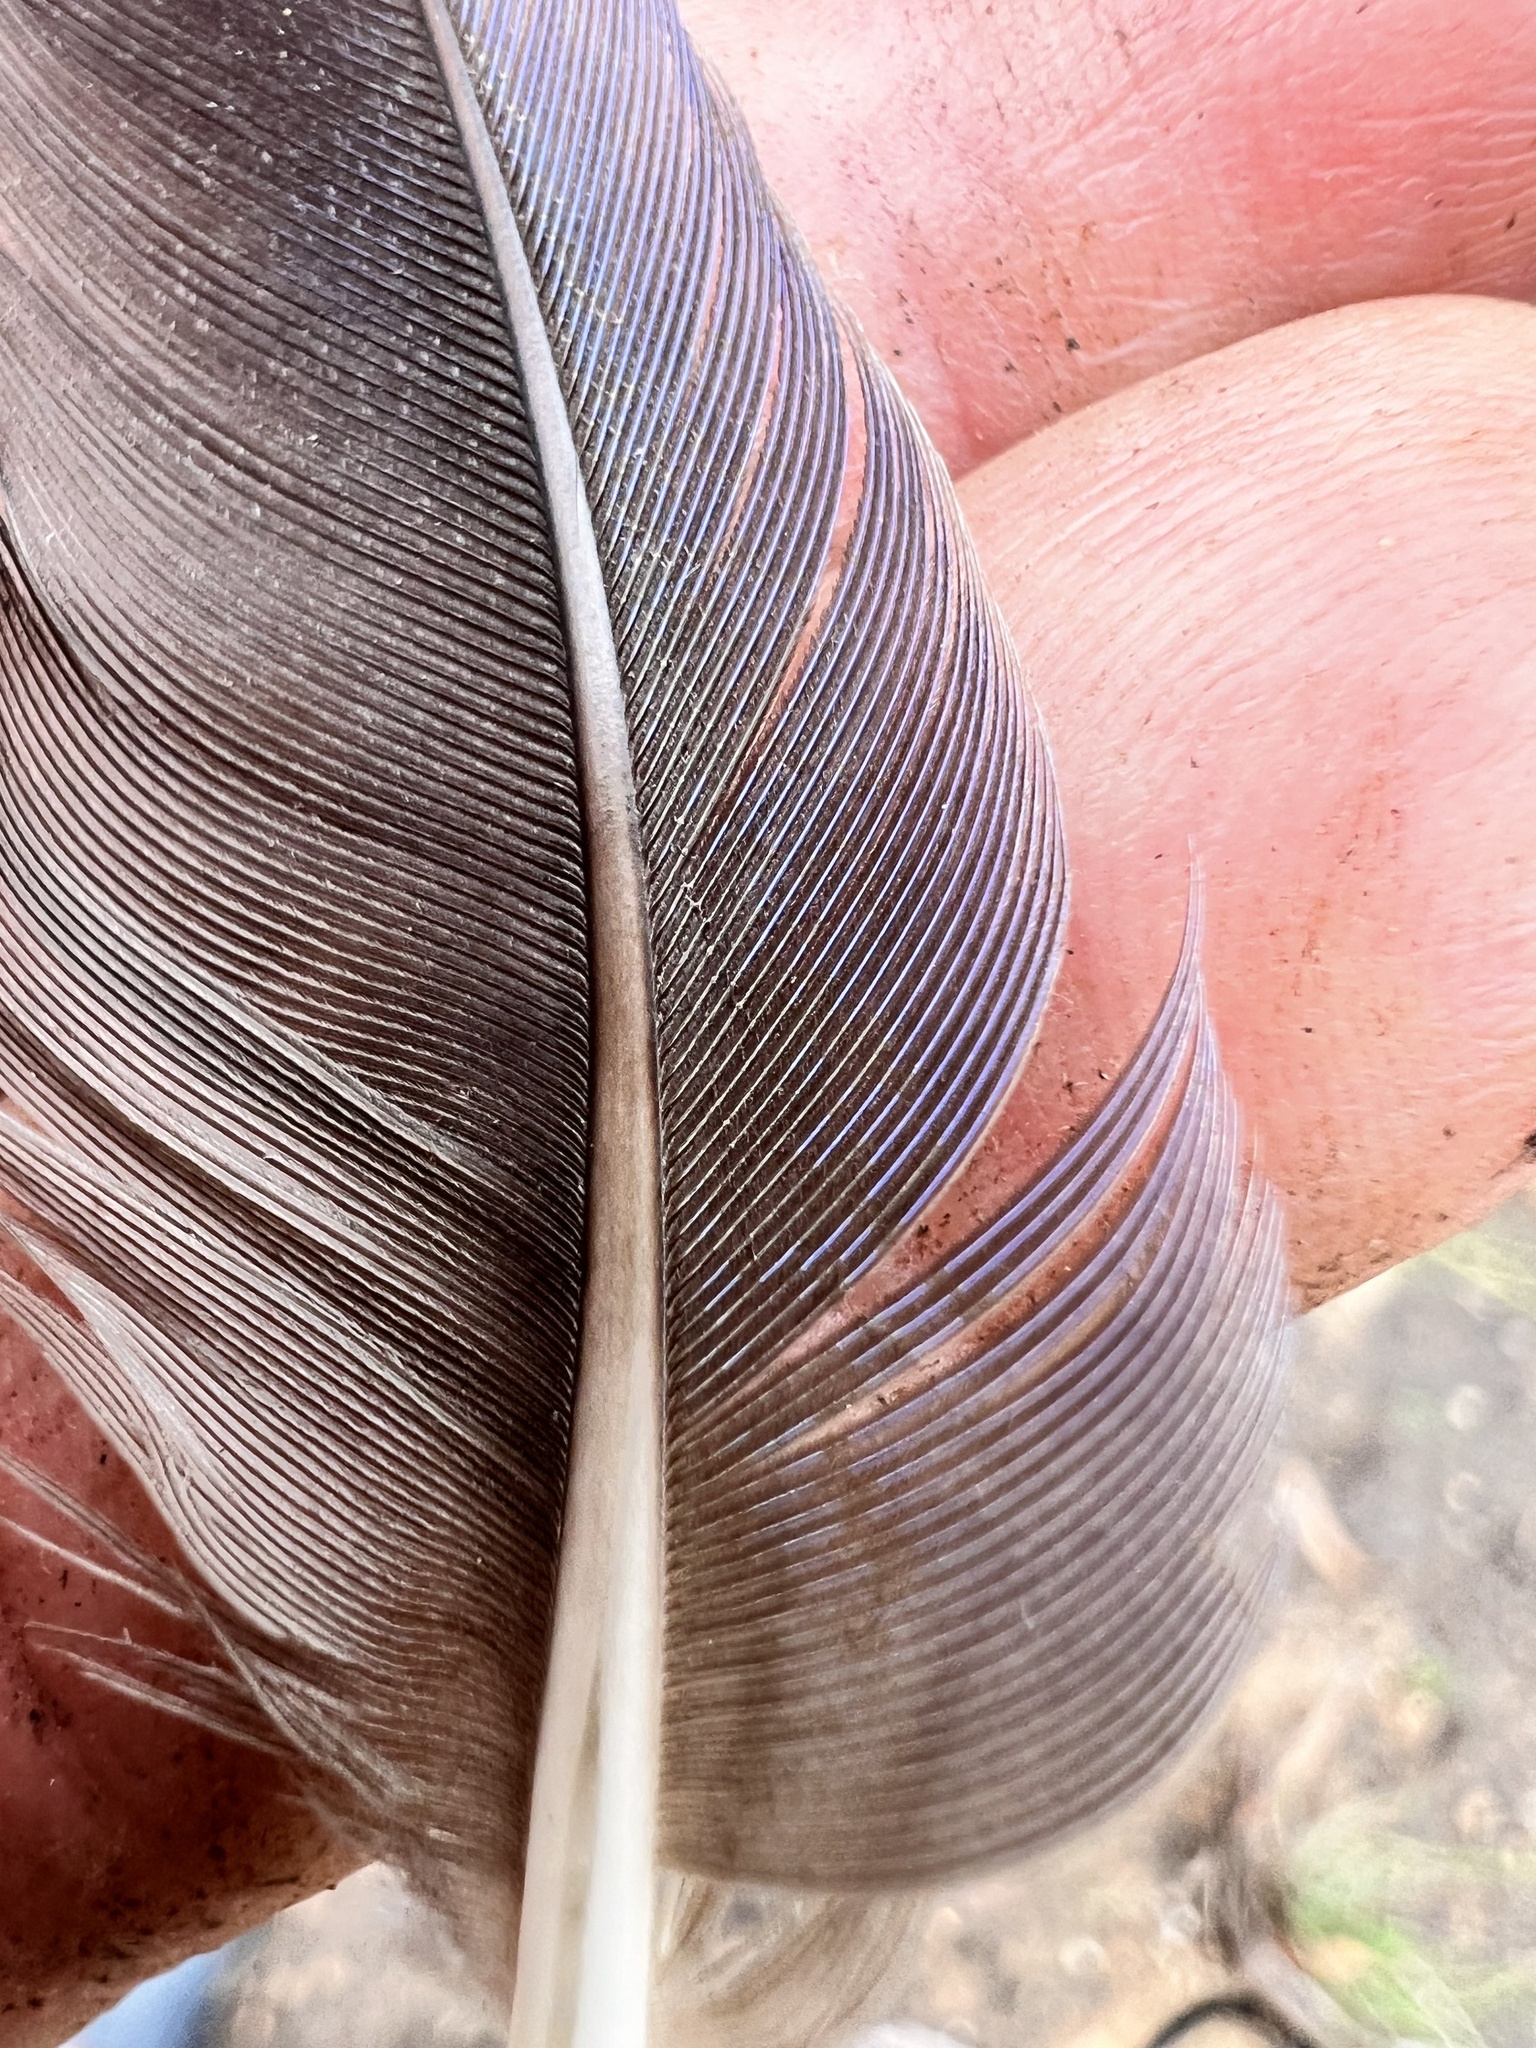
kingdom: Animalia
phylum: Chordata
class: Aves
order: Psittaciformes
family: Psittacidae
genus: Platycercus
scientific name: Platycercus elegans
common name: Crimson rosella
